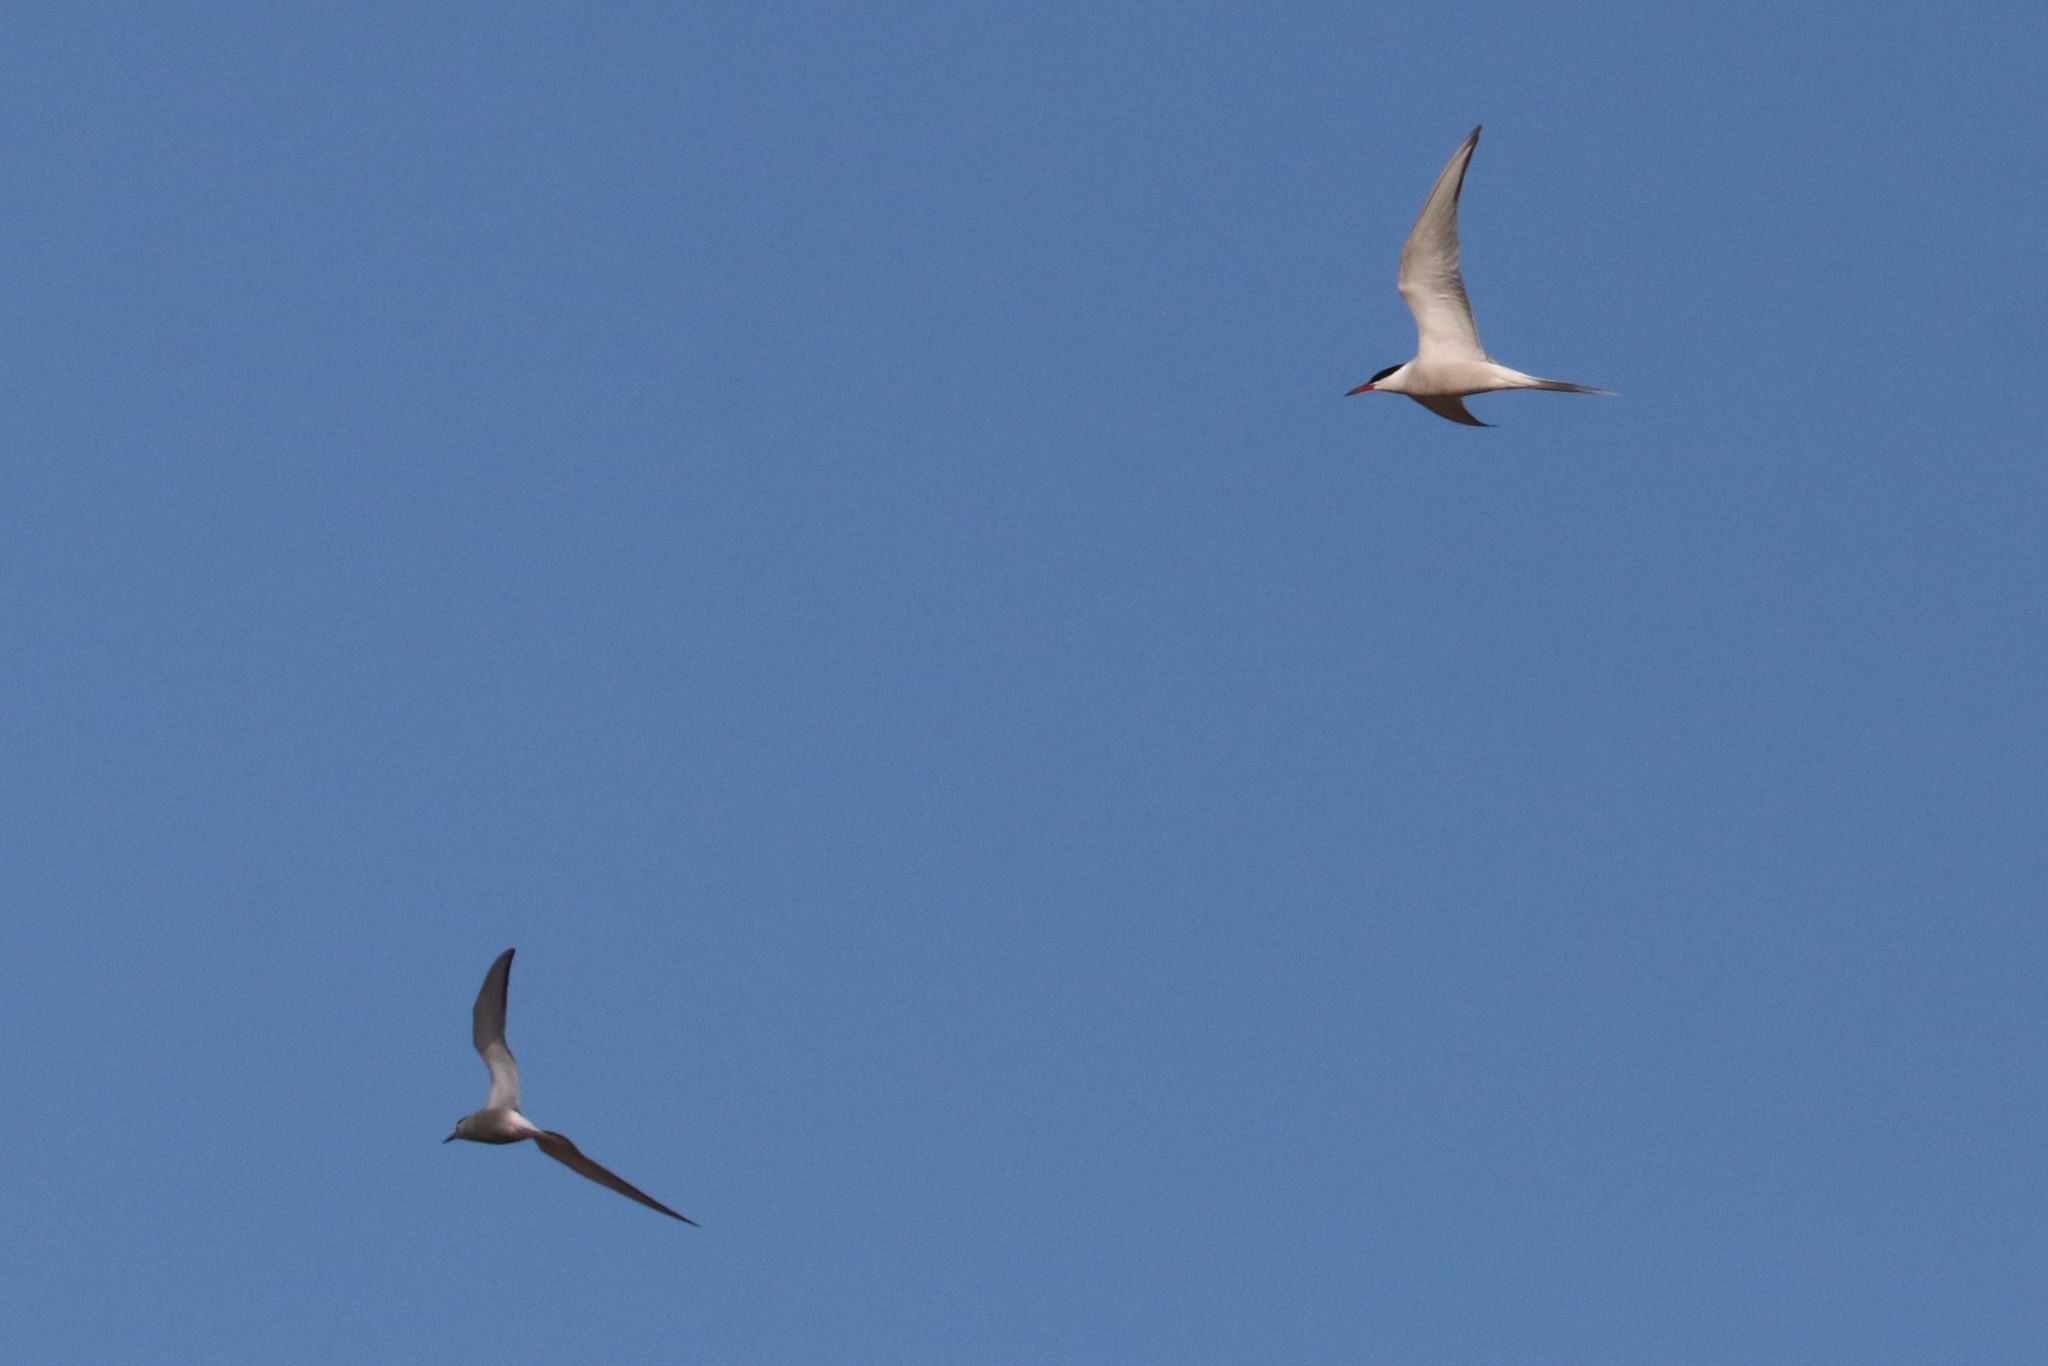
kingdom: Animalia
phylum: Chordata
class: Aves
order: Charadriiformes
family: Laridae
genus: Sterna
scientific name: Sterna hirundo
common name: Common tern
